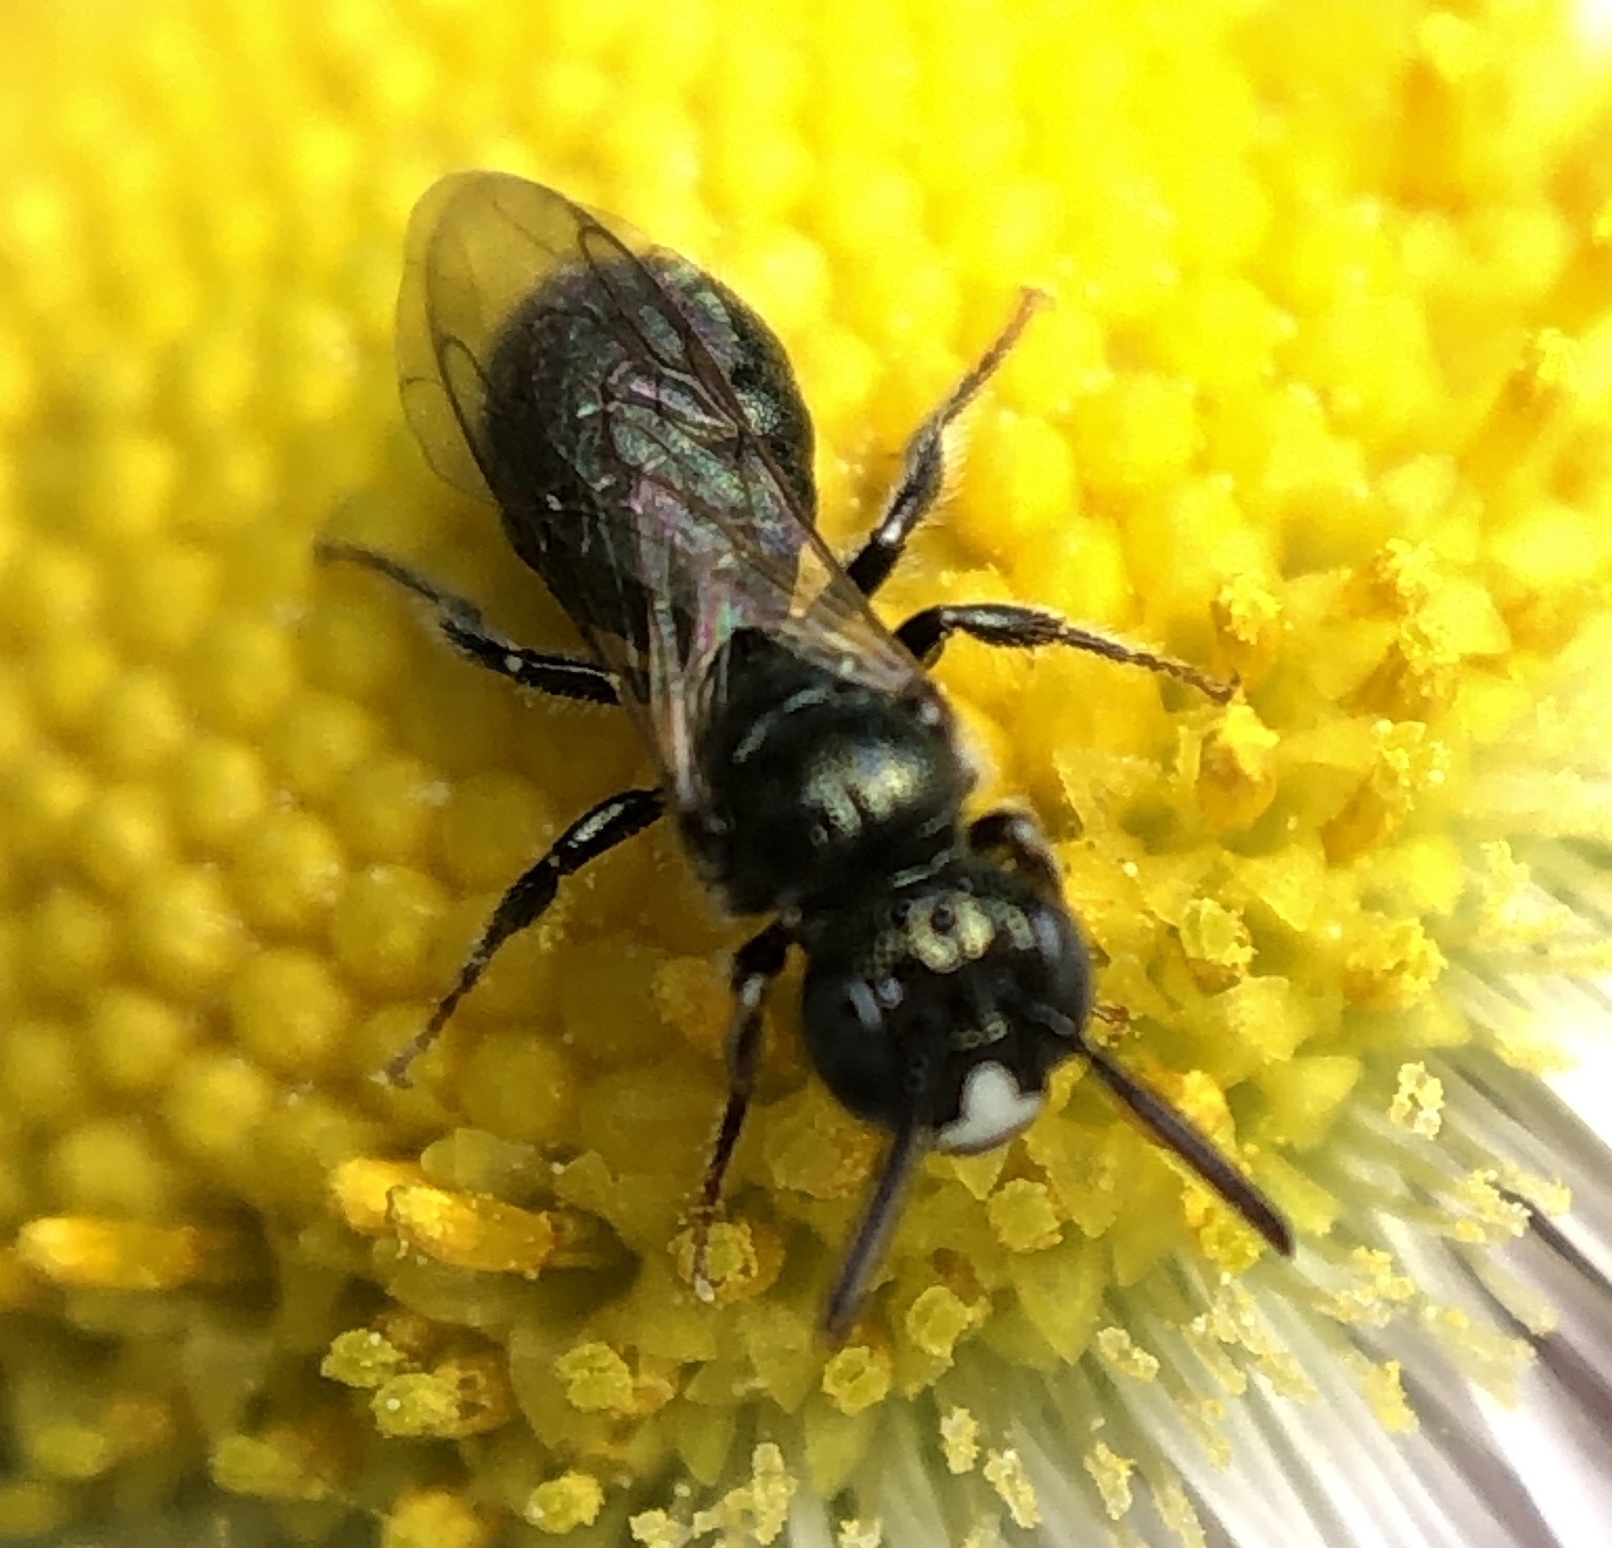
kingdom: Animalia
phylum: Arthropoda
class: Insecta
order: Hymenoptera
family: Apidae
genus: Ceratina
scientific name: Ceratina strenua
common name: Nimble carpenter bee
